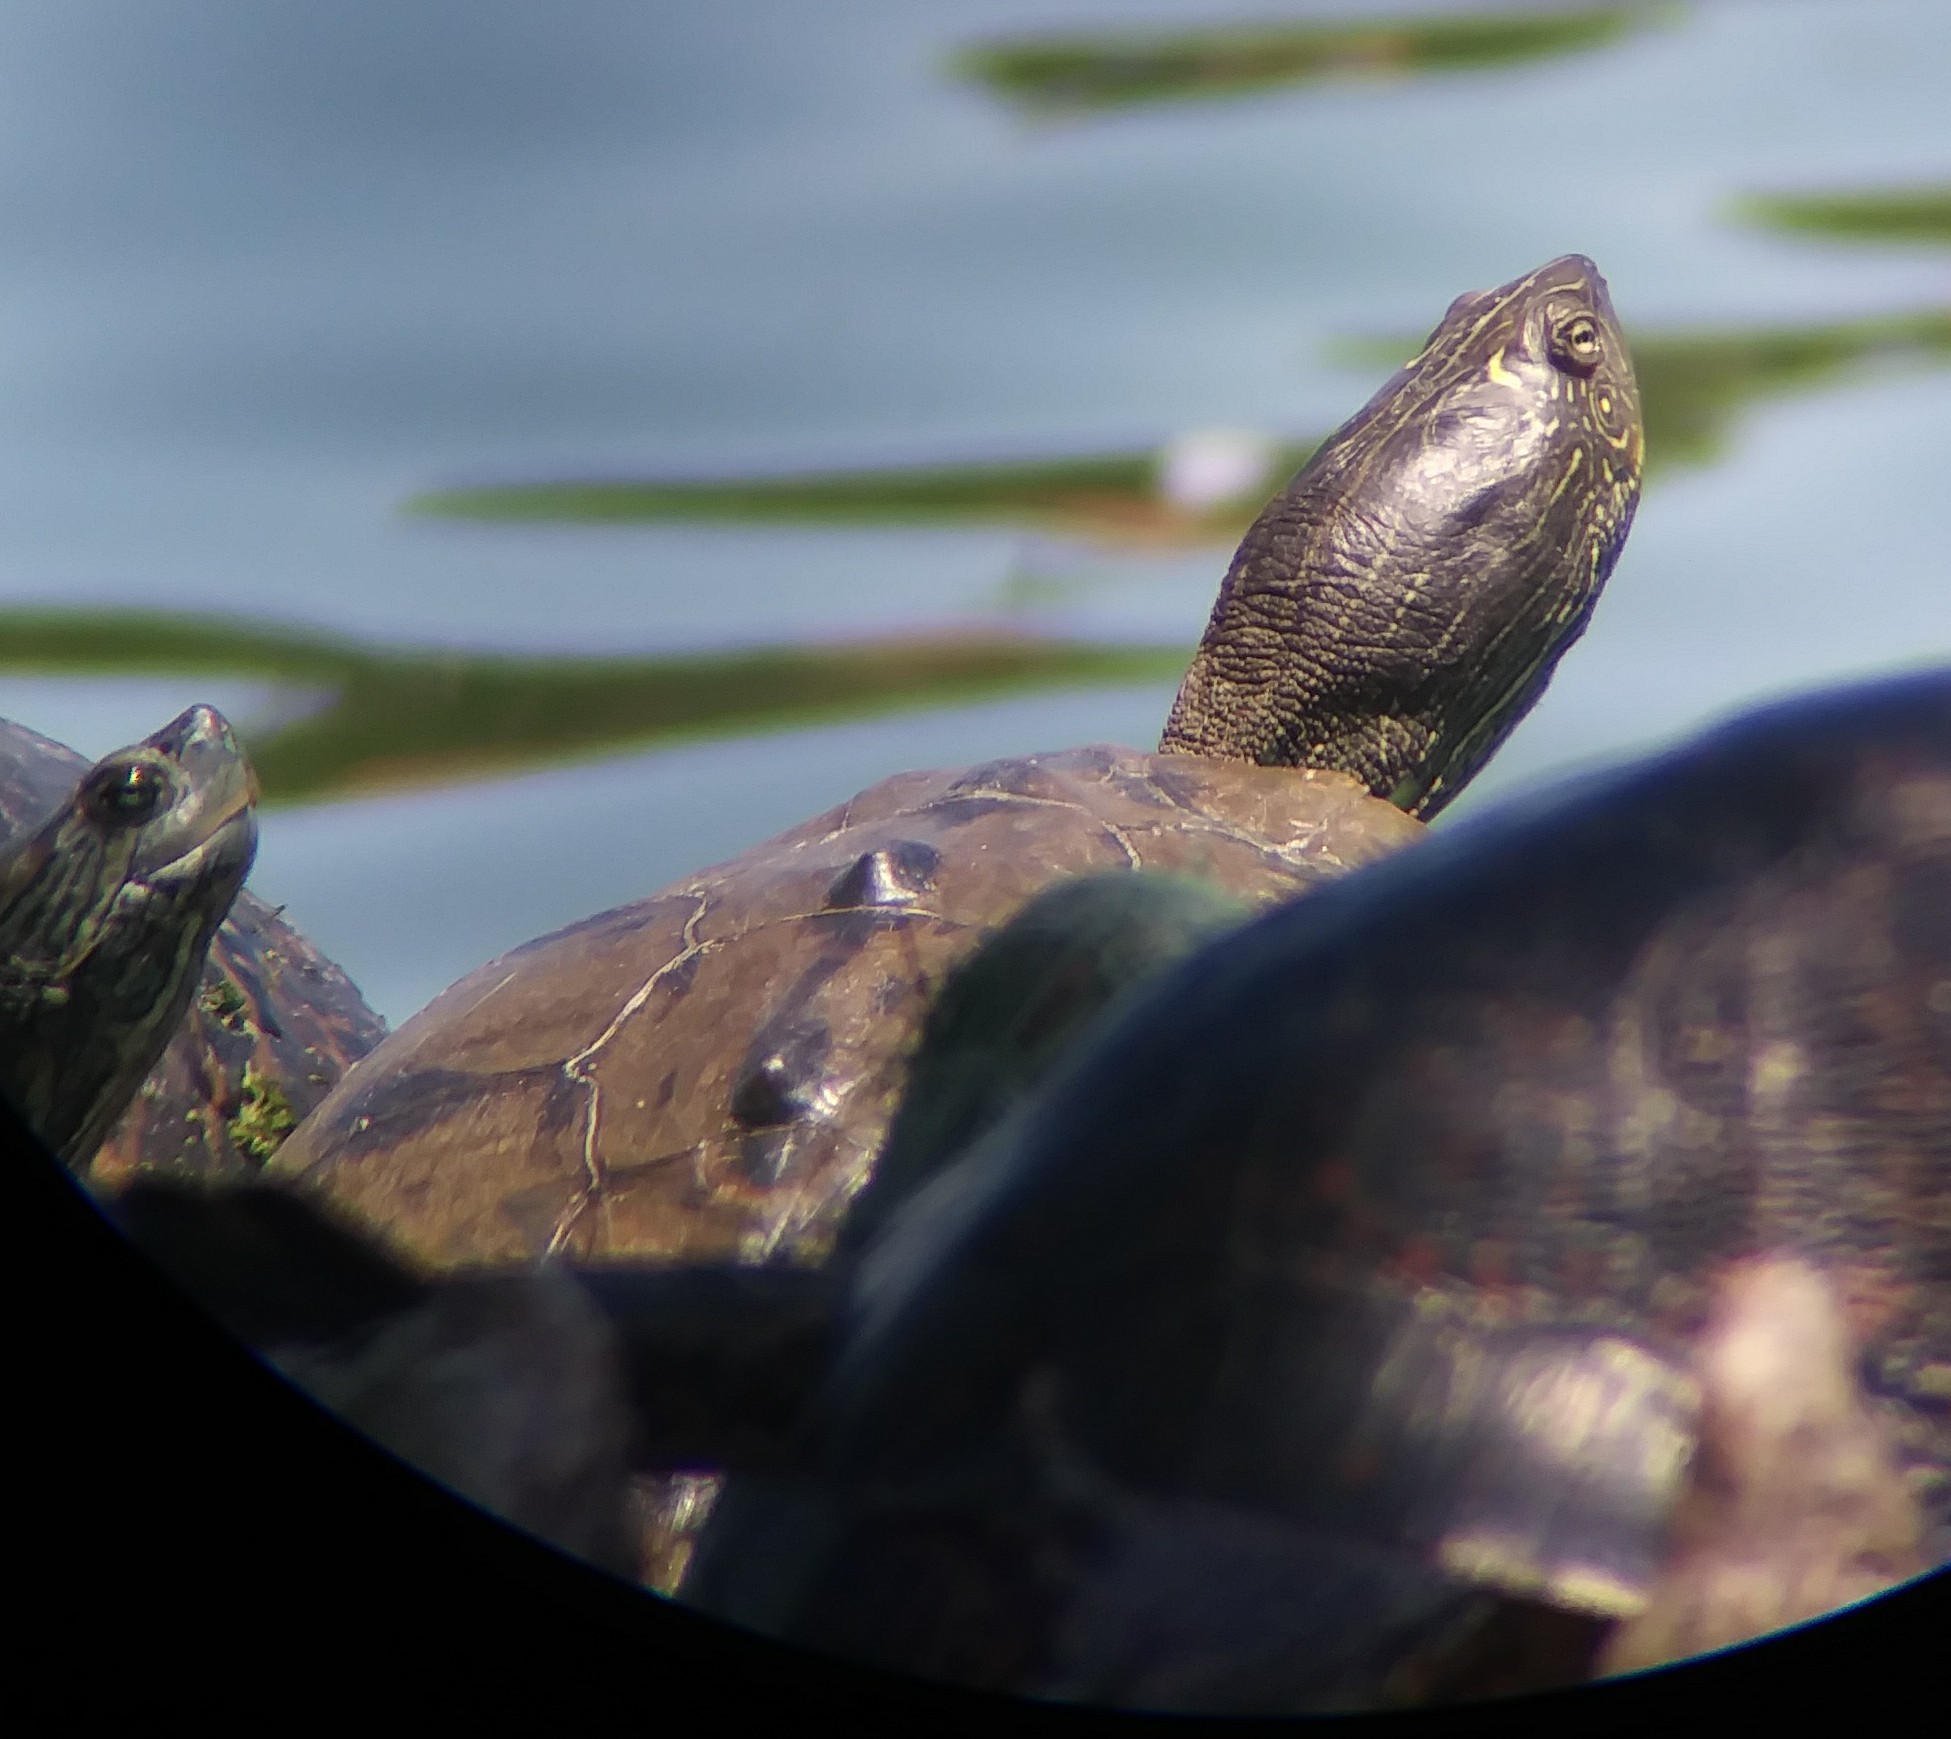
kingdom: Animalia
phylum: Chordata
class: Testudines
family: Emydidae
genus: Graptemys
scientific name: Graptemys pseudogeographica
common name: False map turtle
